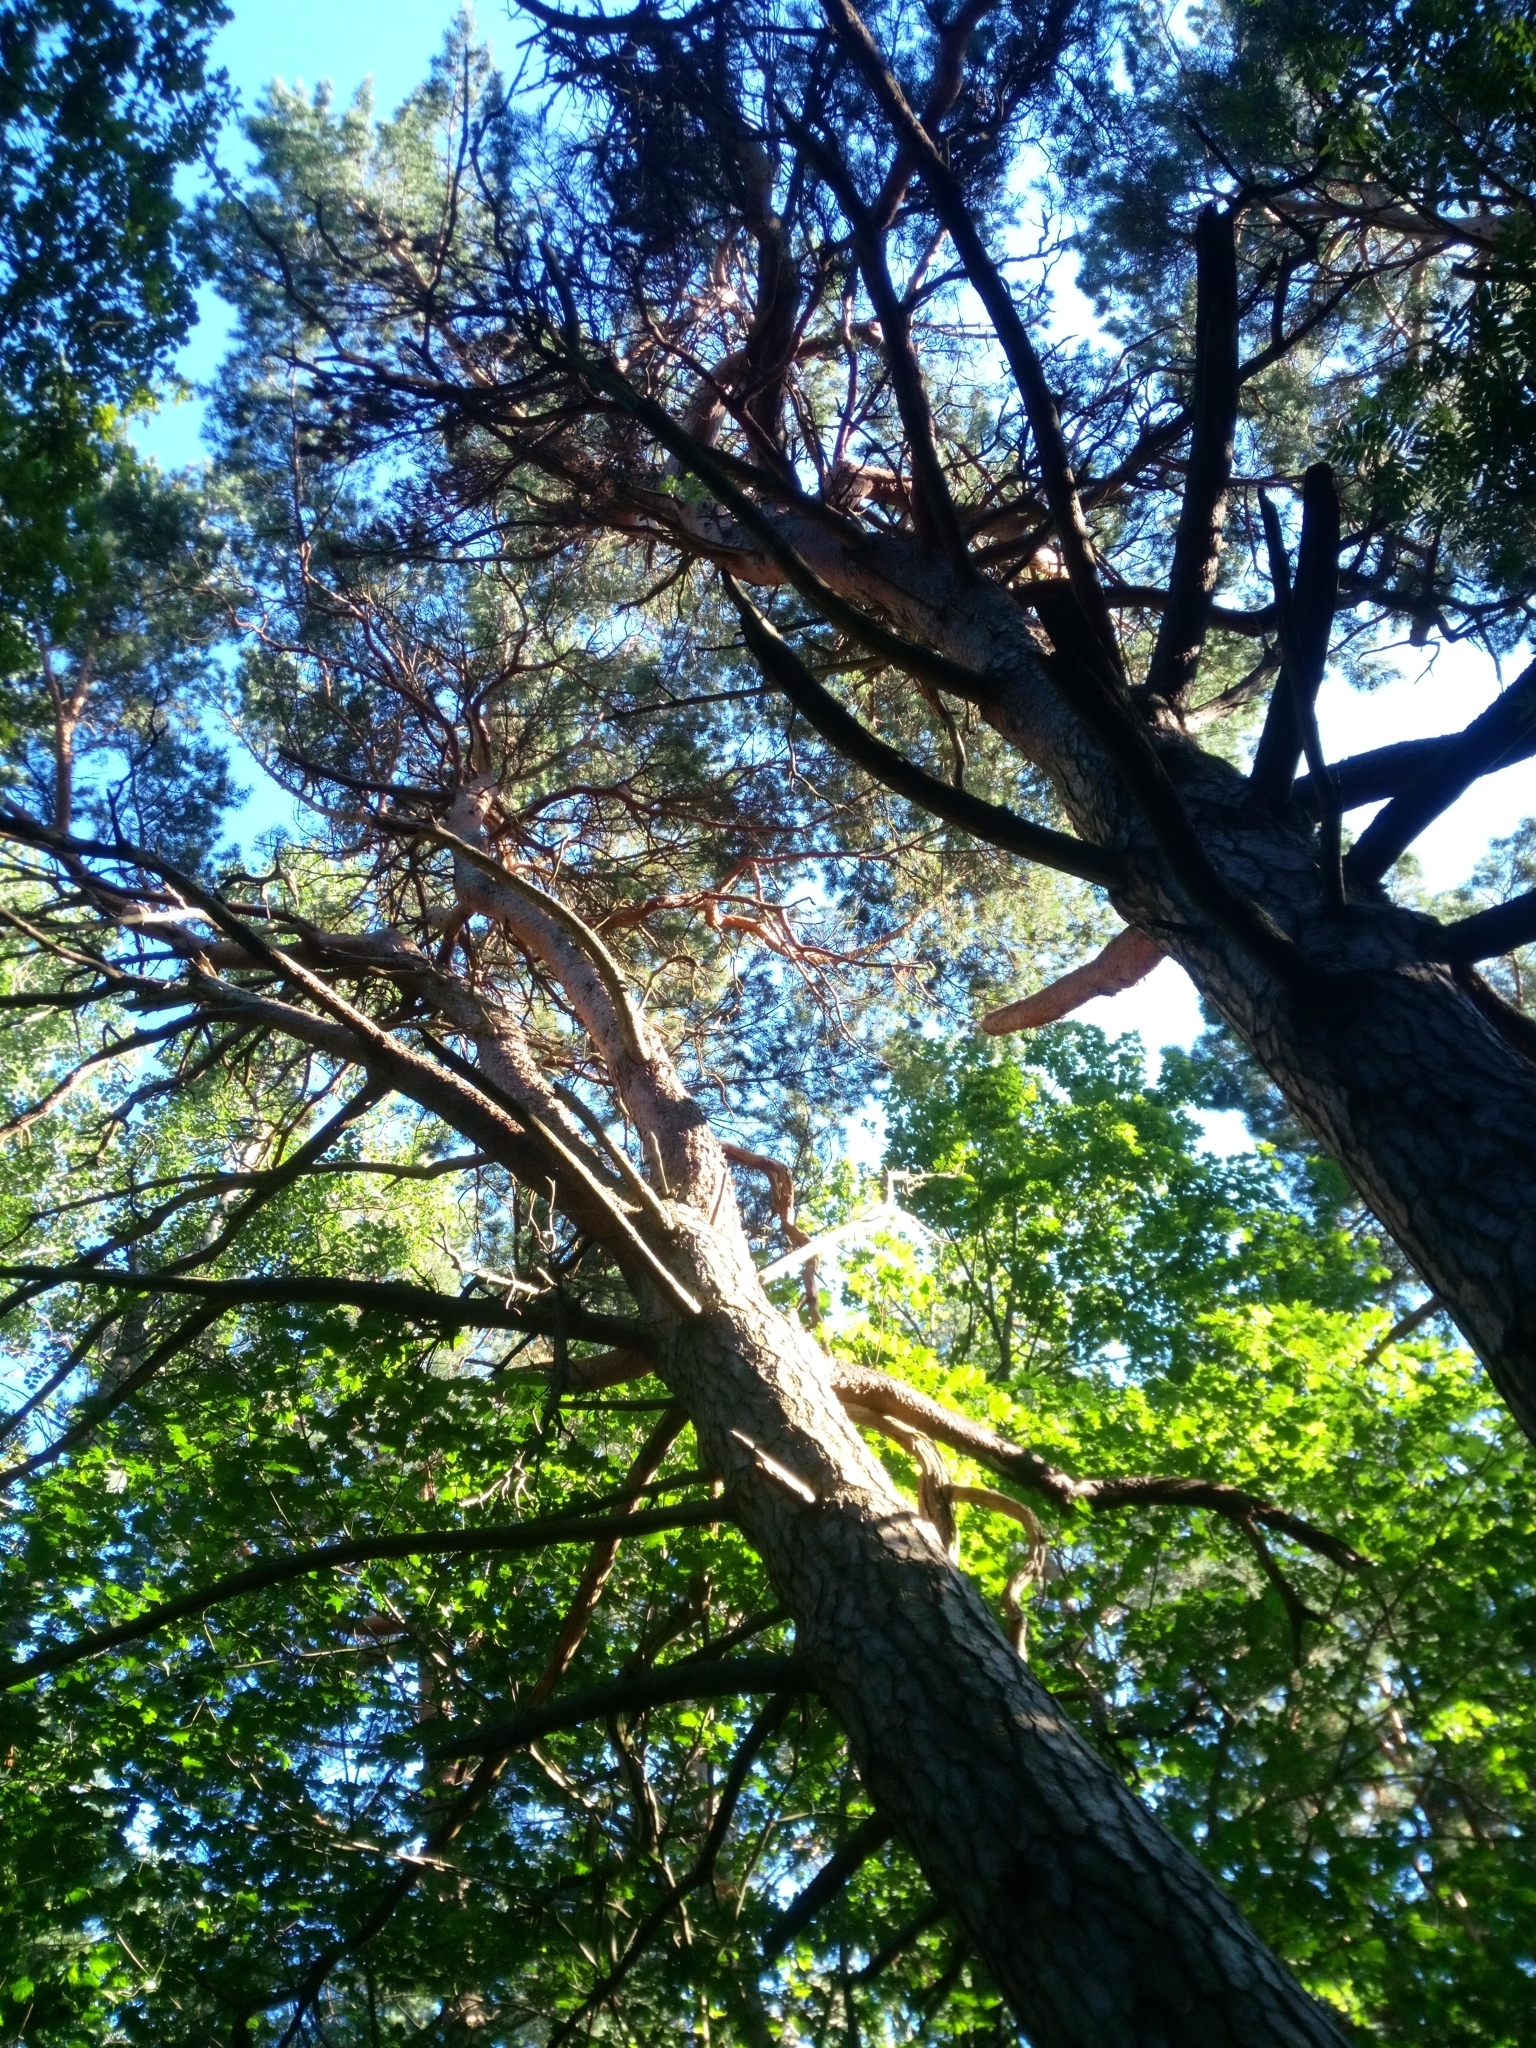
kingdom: Plantae
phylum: Tracheophyta
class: Pinopsida
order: Pinales
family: Pinaceae
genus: Pinus
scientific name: Pinus sylvestris
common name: Scots pine
